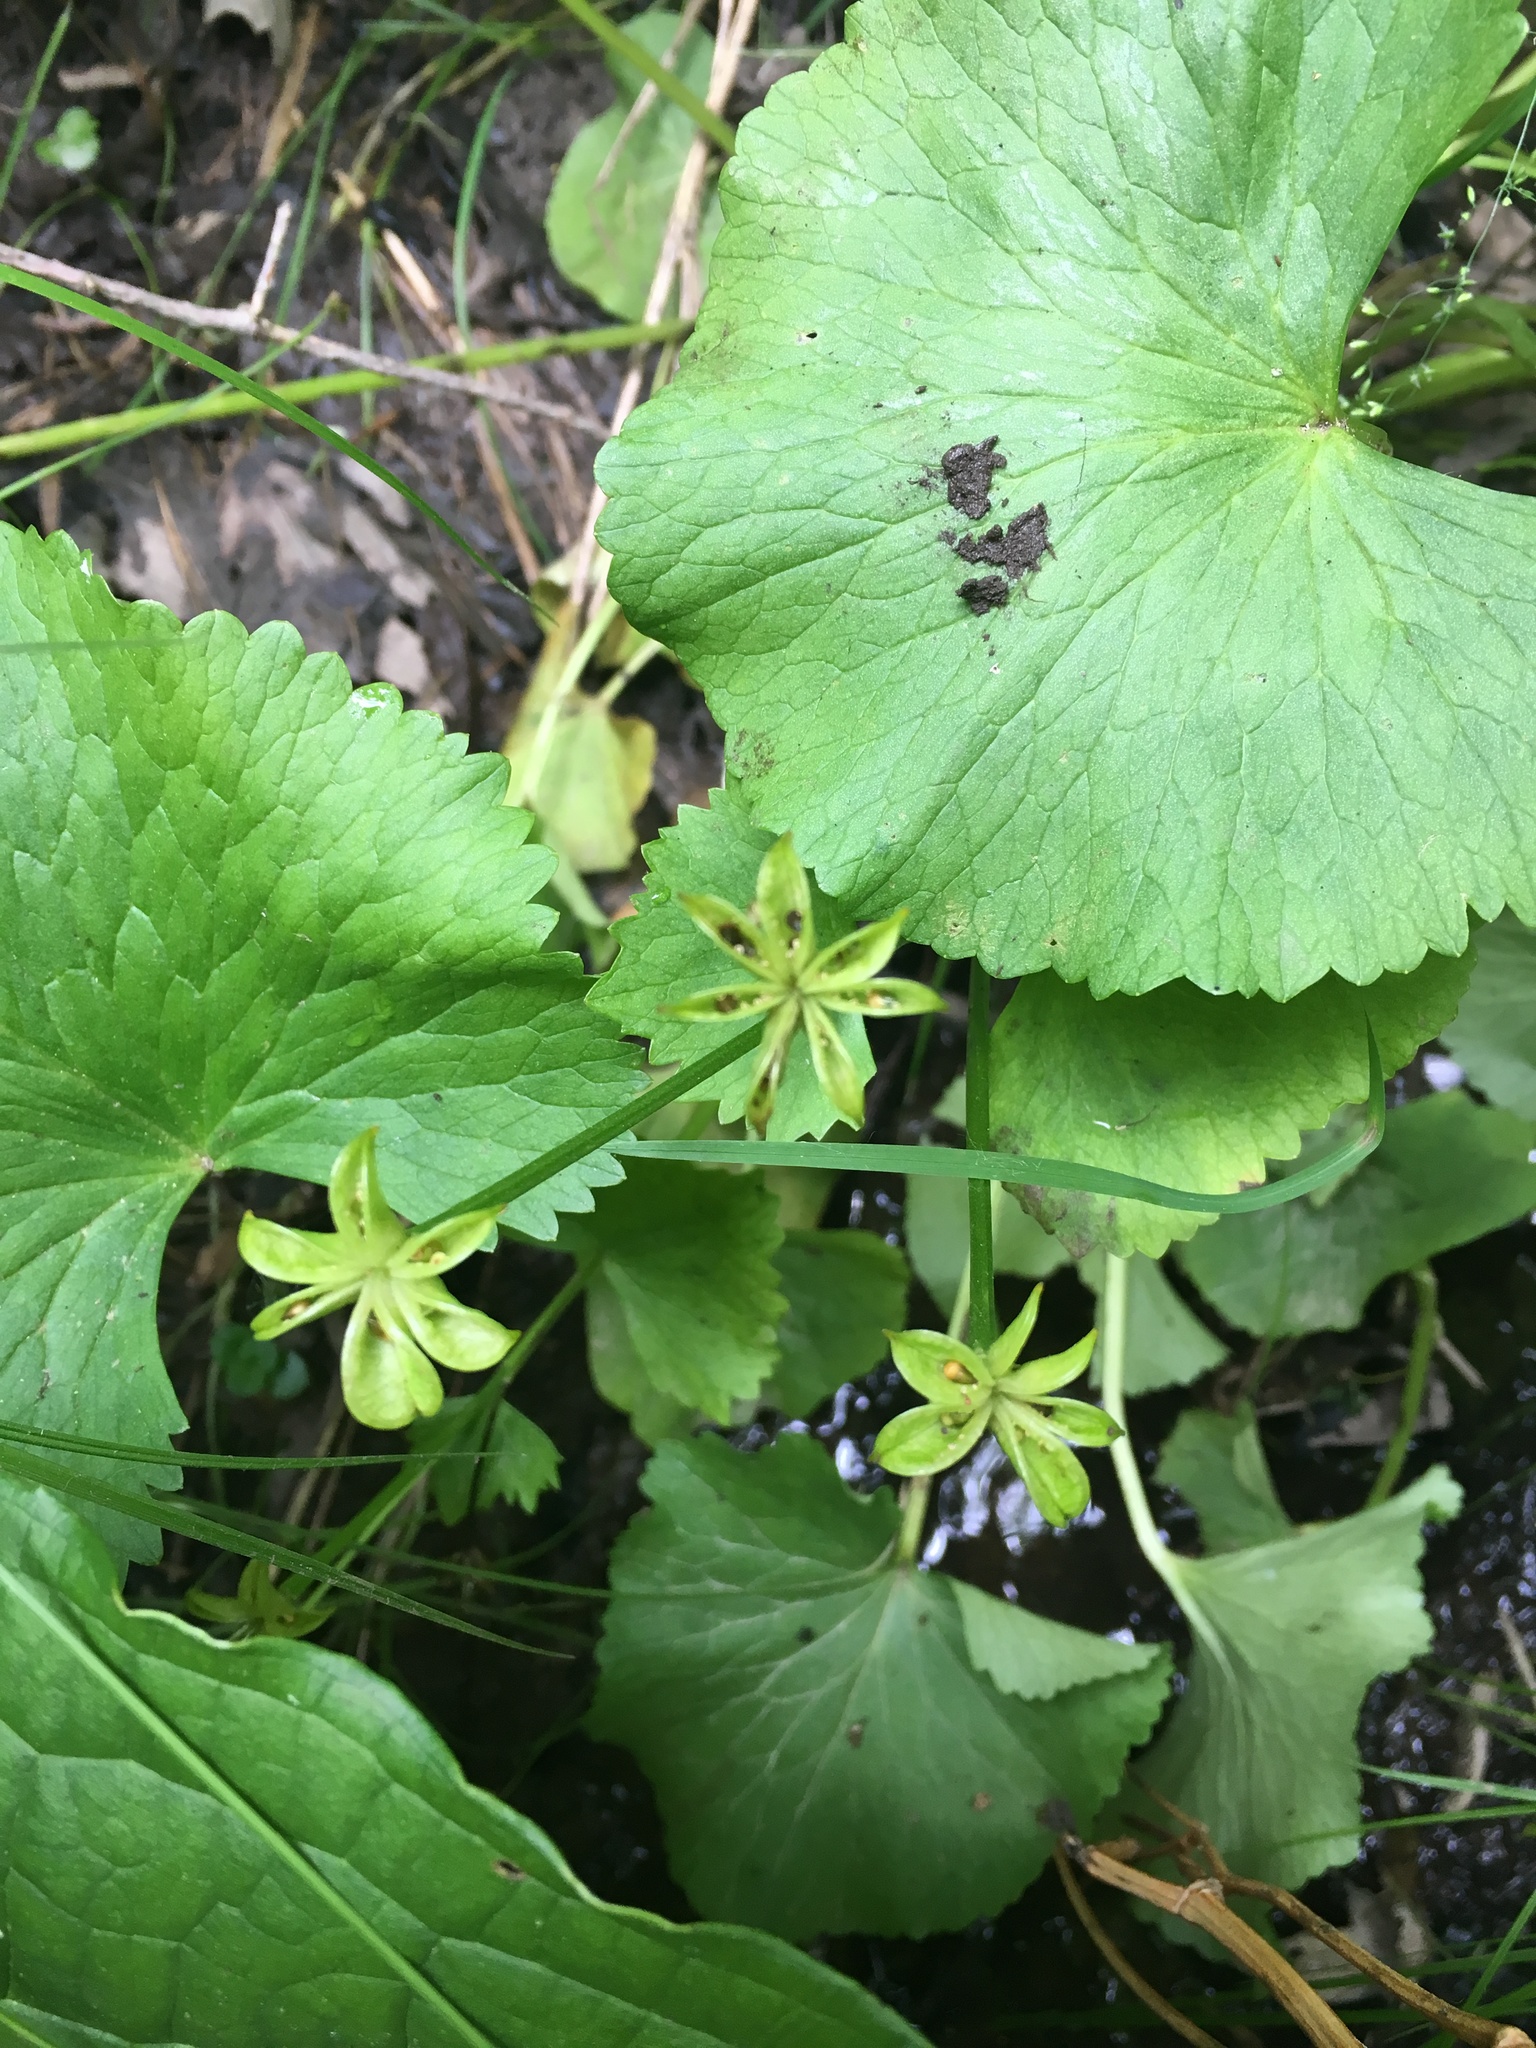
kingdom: Plantae
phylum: Tracheophyta
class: Magnoliopsida
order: Ranunculales
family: Ranunculaceae
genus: Caltha
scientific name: Caltha palustris
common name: Marsh marigold
